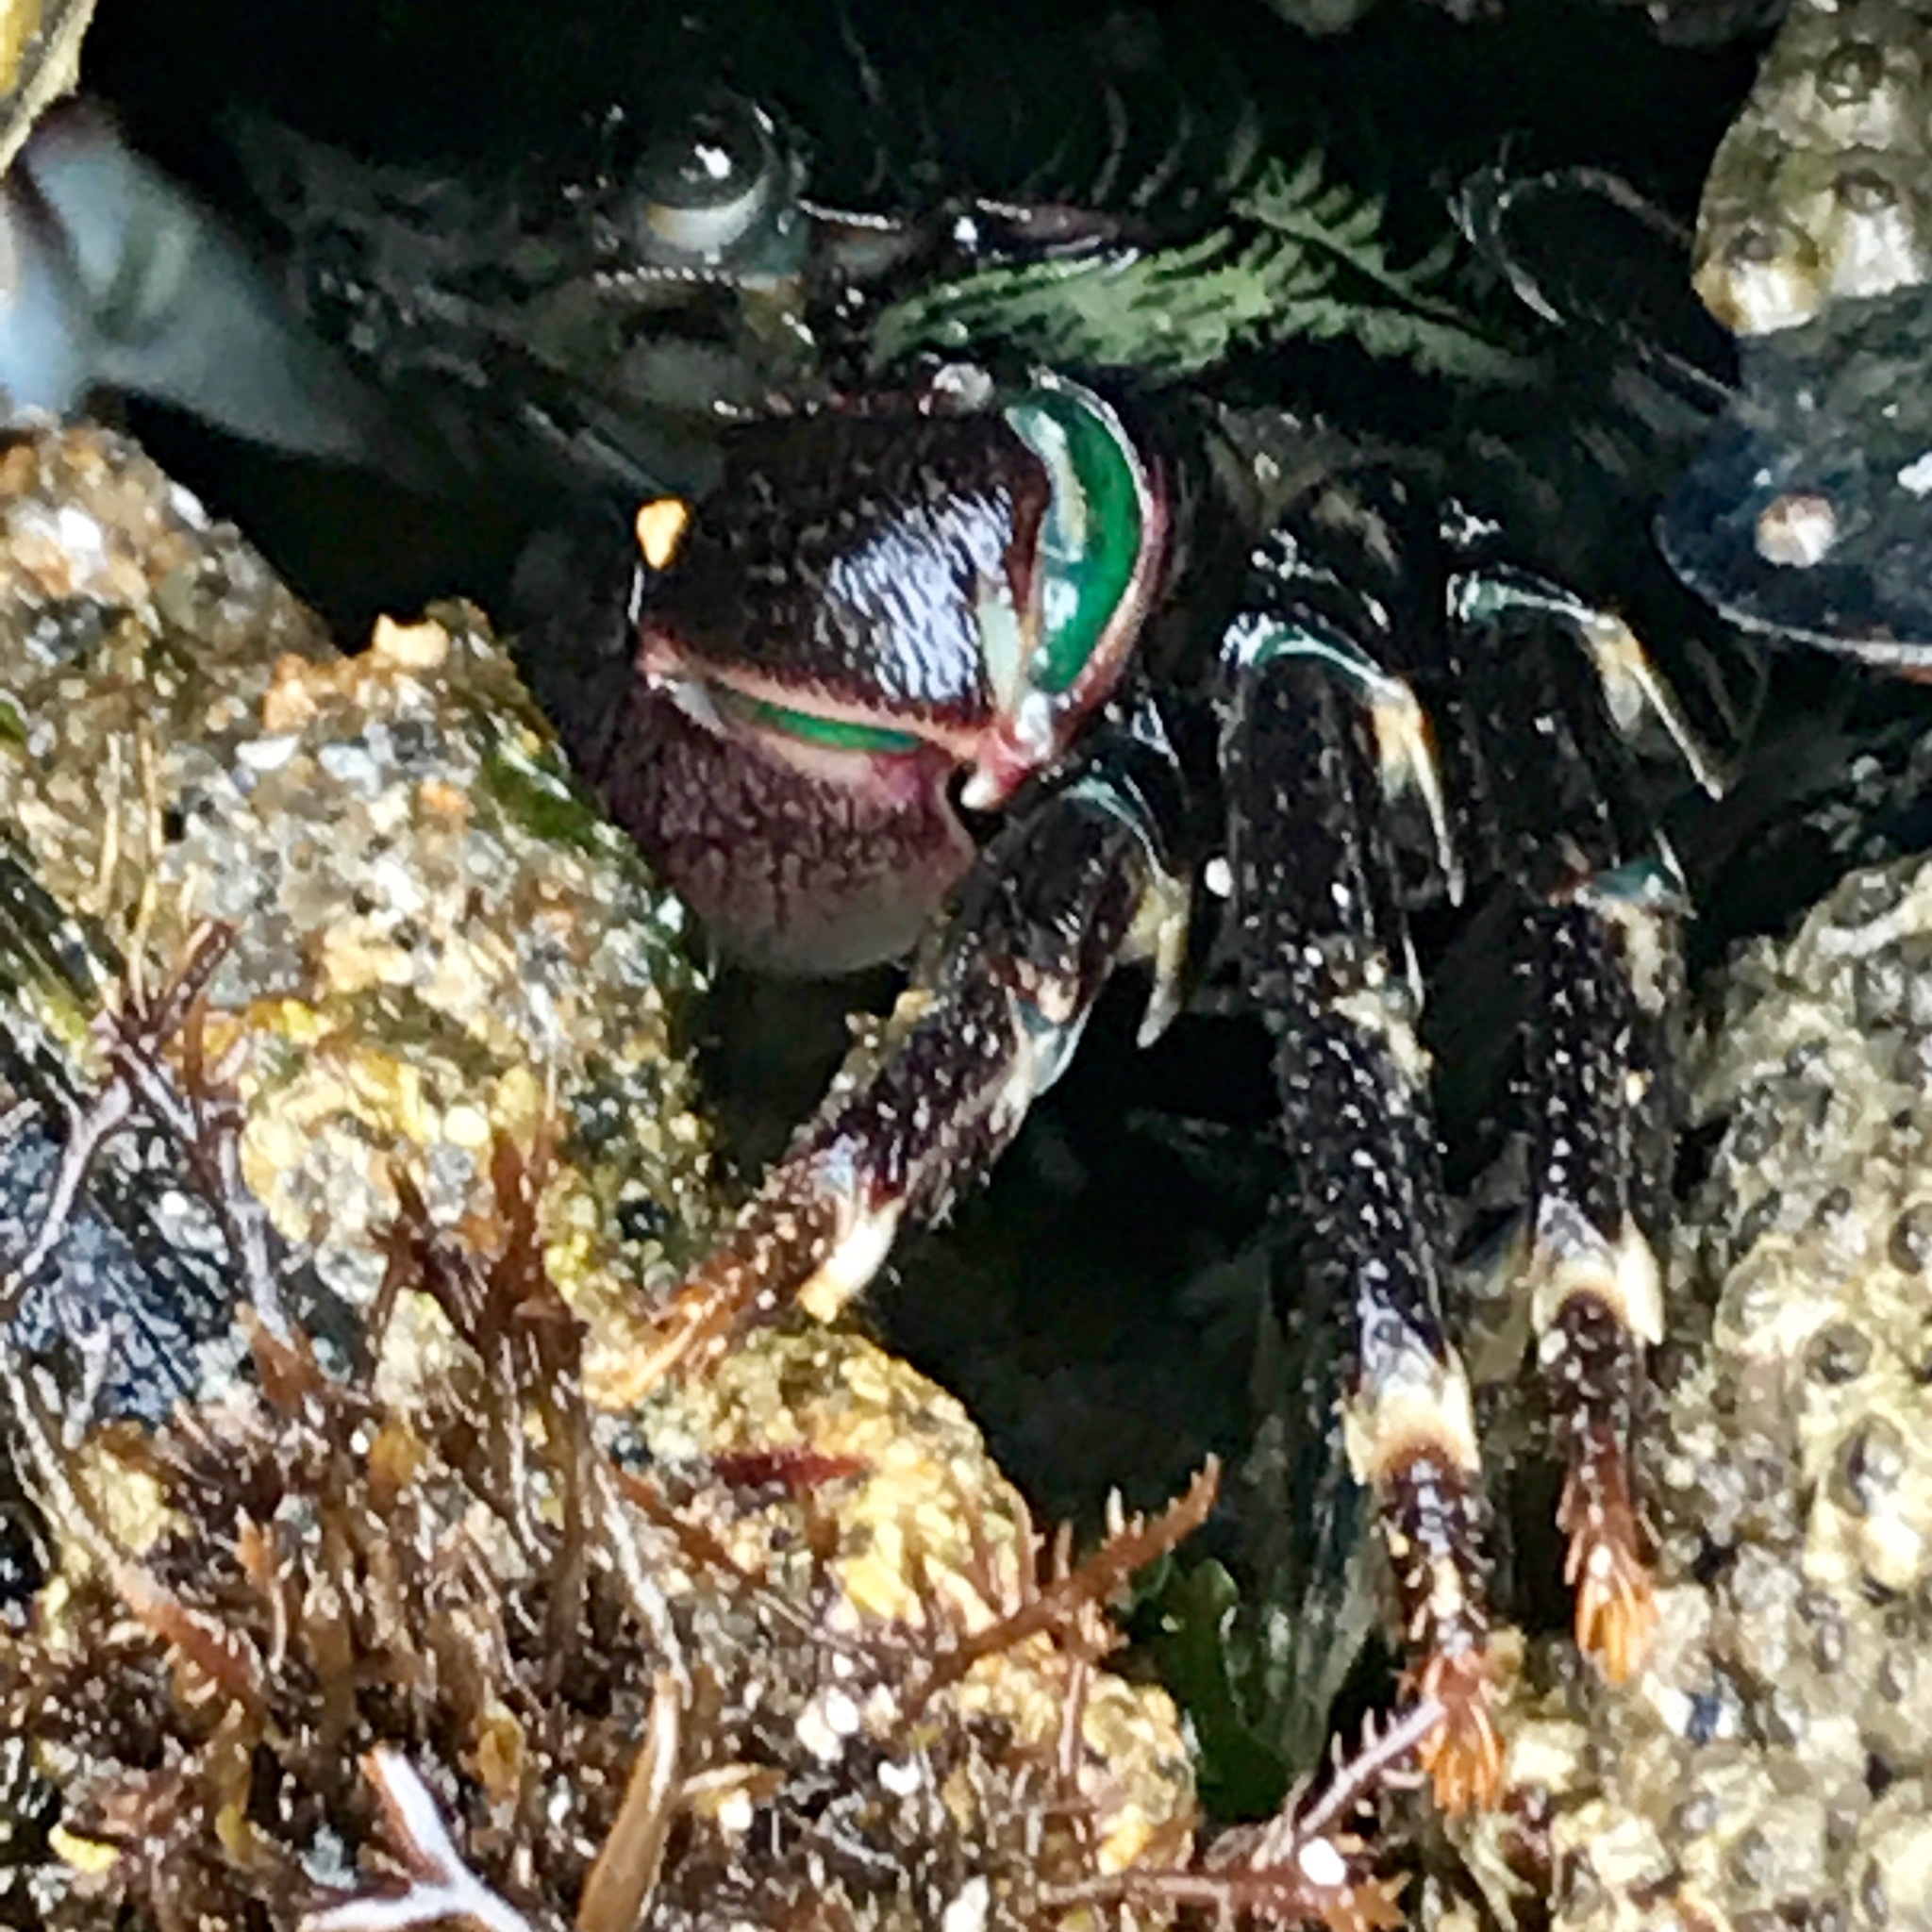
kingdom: Animalia
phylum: Arthropoda
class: Malacostraca
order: Decapoda
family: Grapsidae
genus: Pachygrapsus
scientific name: Pachygrapsus crassipes
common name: Striped shore crab
